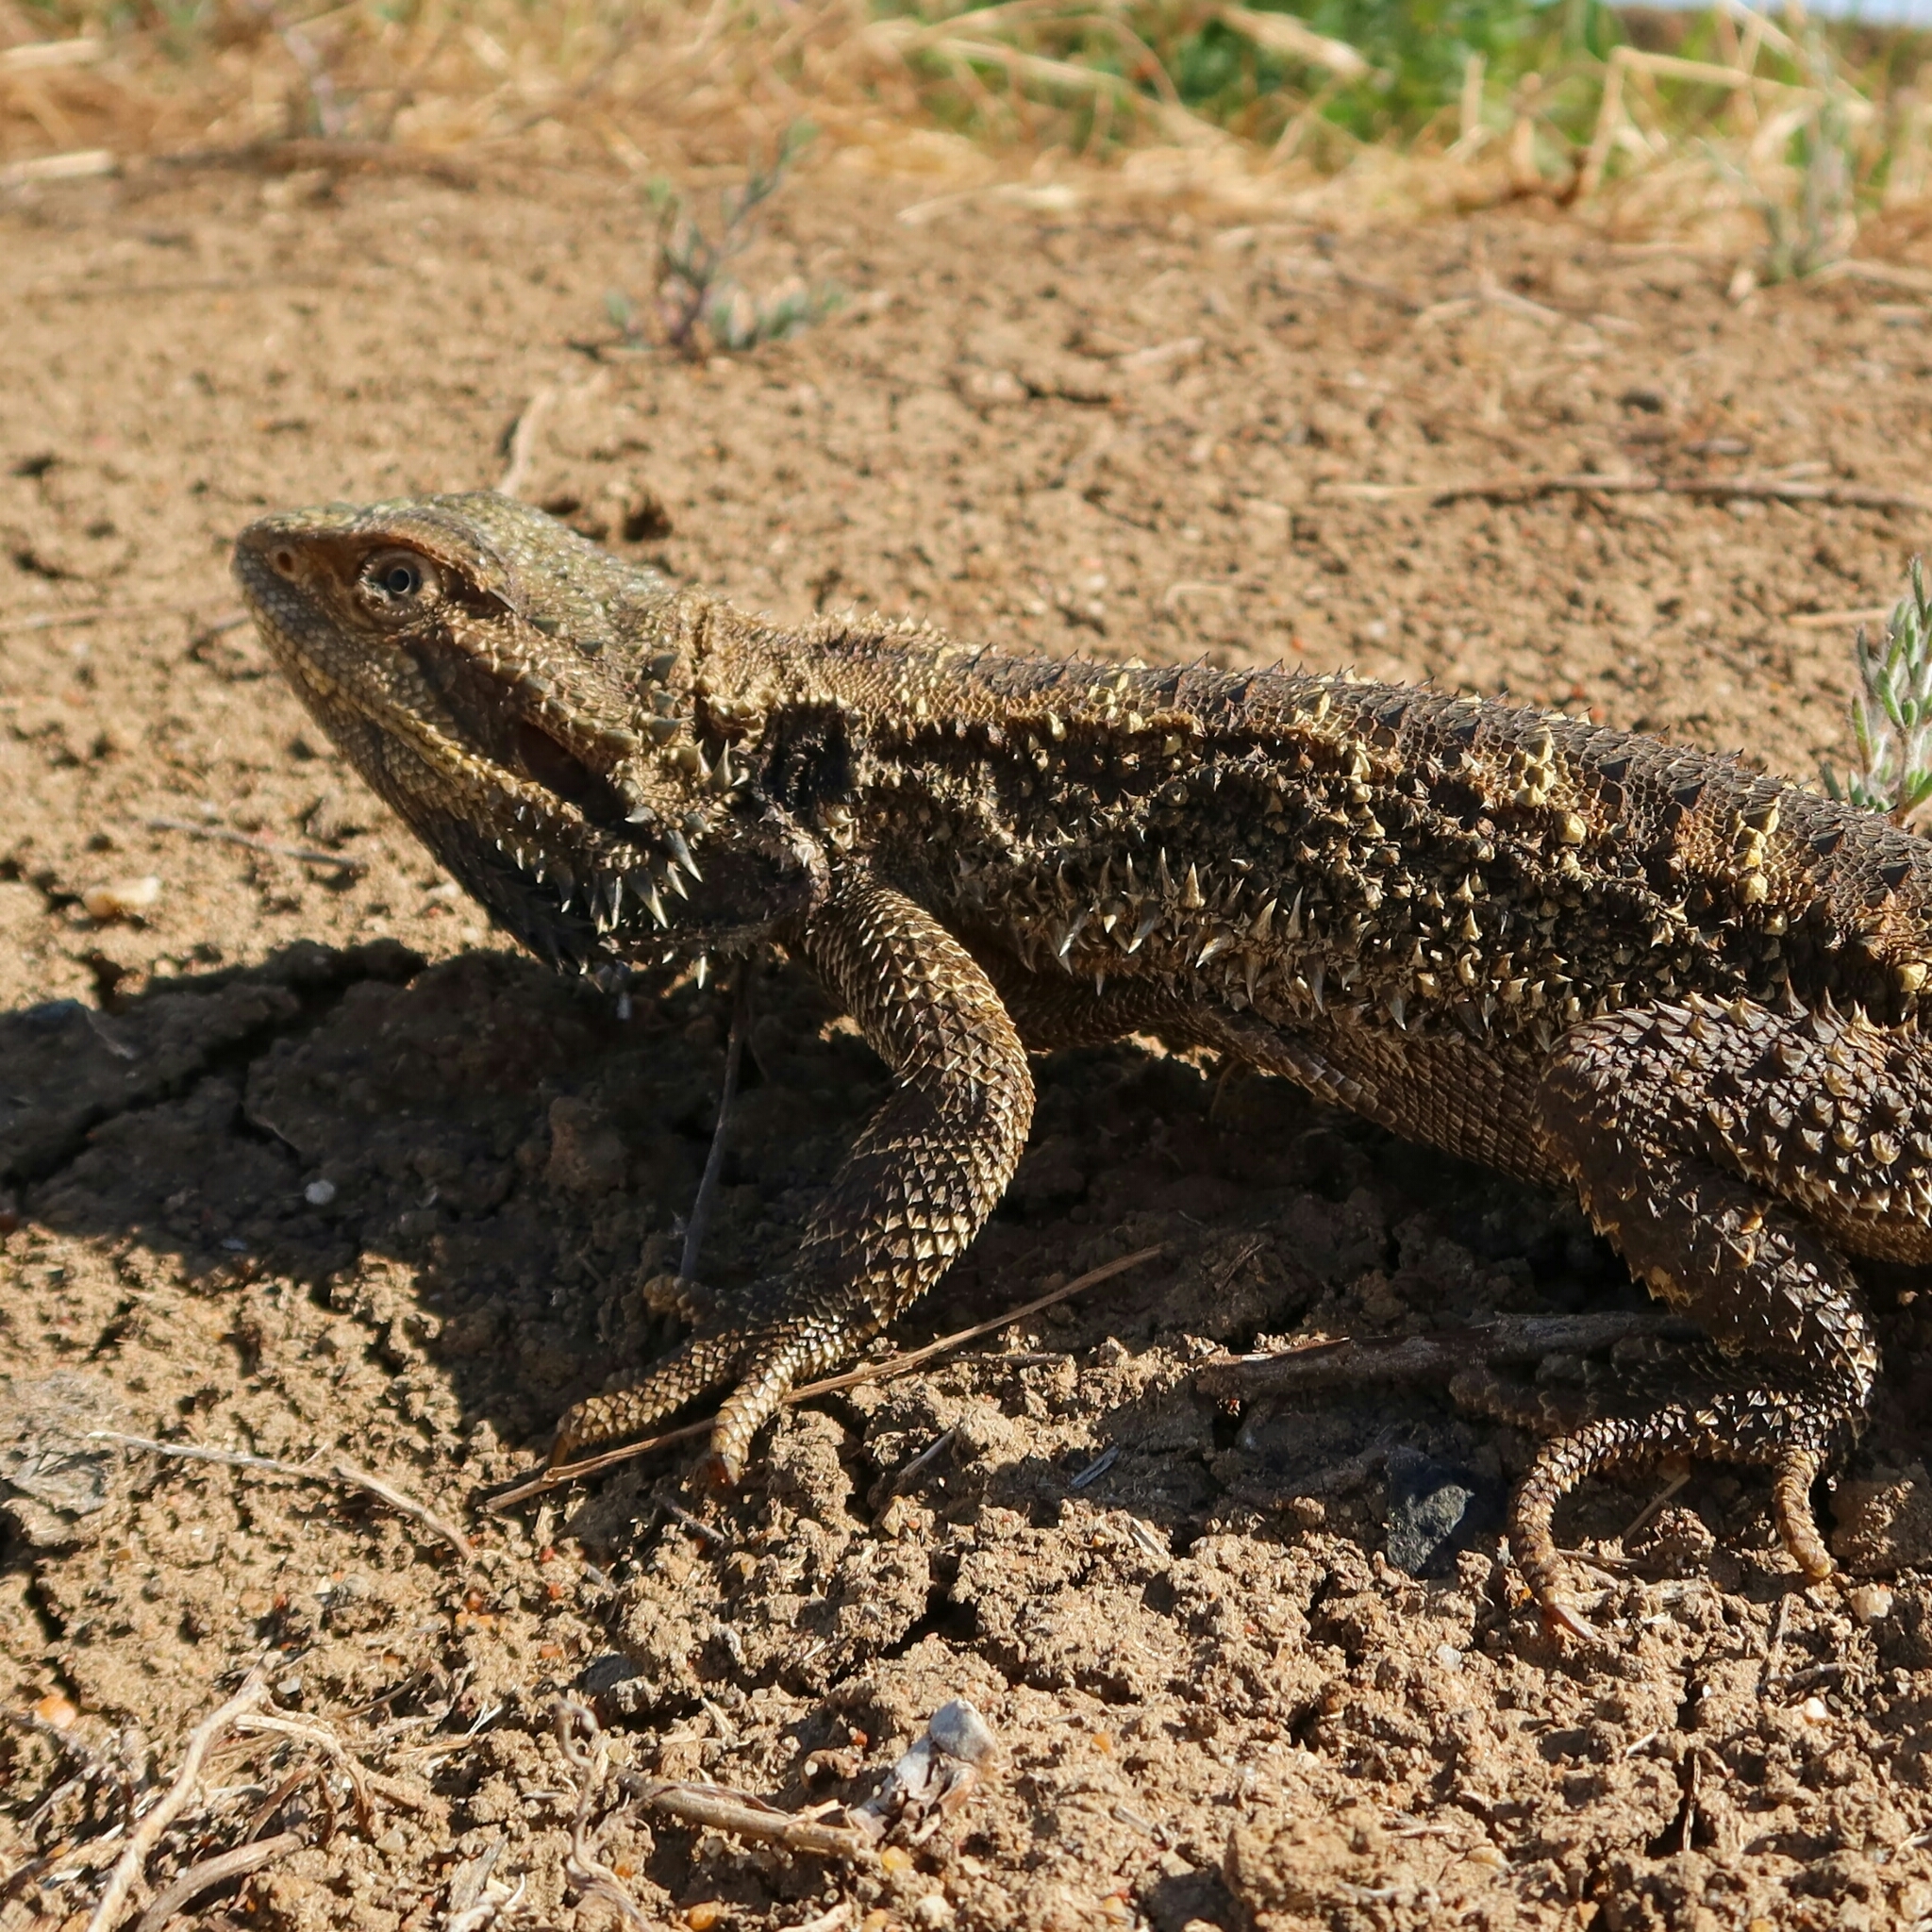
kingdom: Animalia
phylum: Chordata
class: Squamata
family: Agamidae
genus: Pogona
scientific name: Pogona barbata
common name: Bearded dragon
